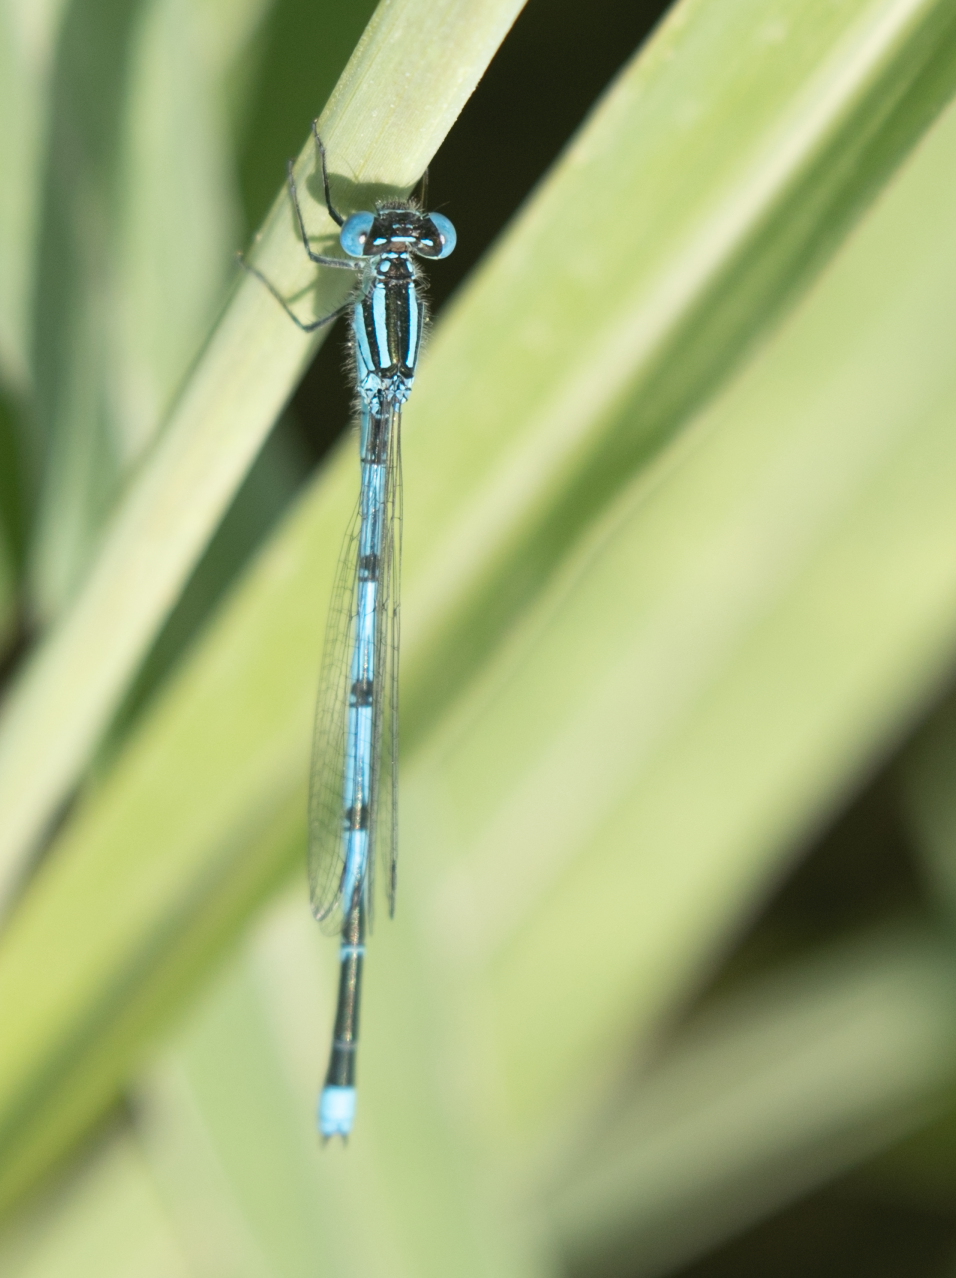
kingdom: Animalia
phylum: Arthropoda
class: Insecta
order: Odonata
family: Coenagrionidae
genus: Erythromma
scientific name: Erythromma lindenii
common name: Blue-eye
